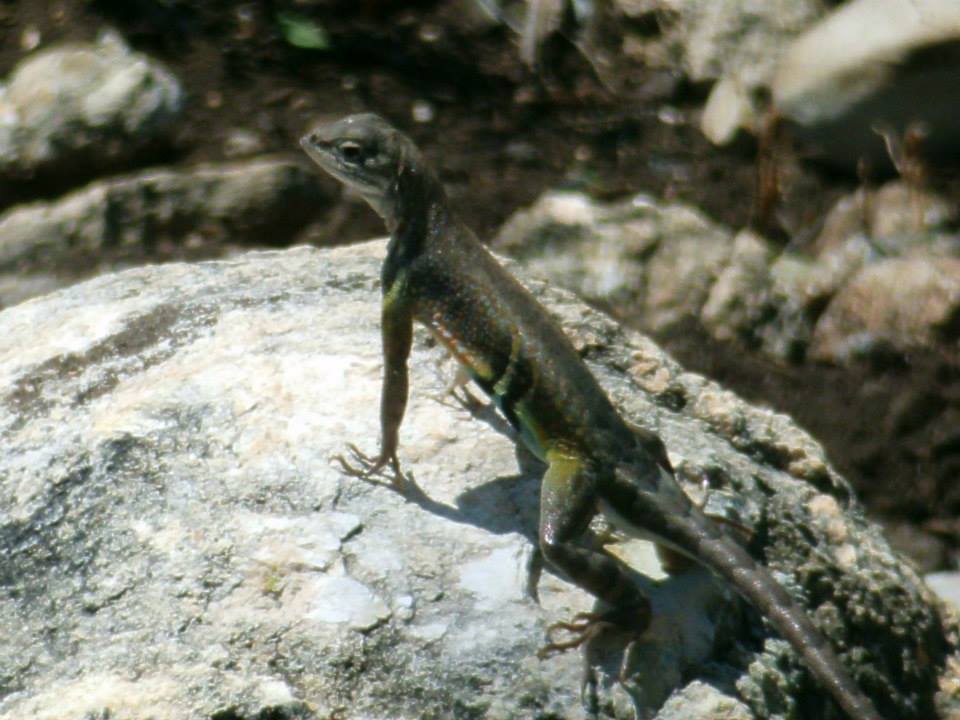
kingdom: Animalia
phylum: Chordata
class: Squamata
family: Phrynosomatidae
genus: Cophosaurus
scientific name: Cophosaurus texanus
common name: Greater earless lizard
